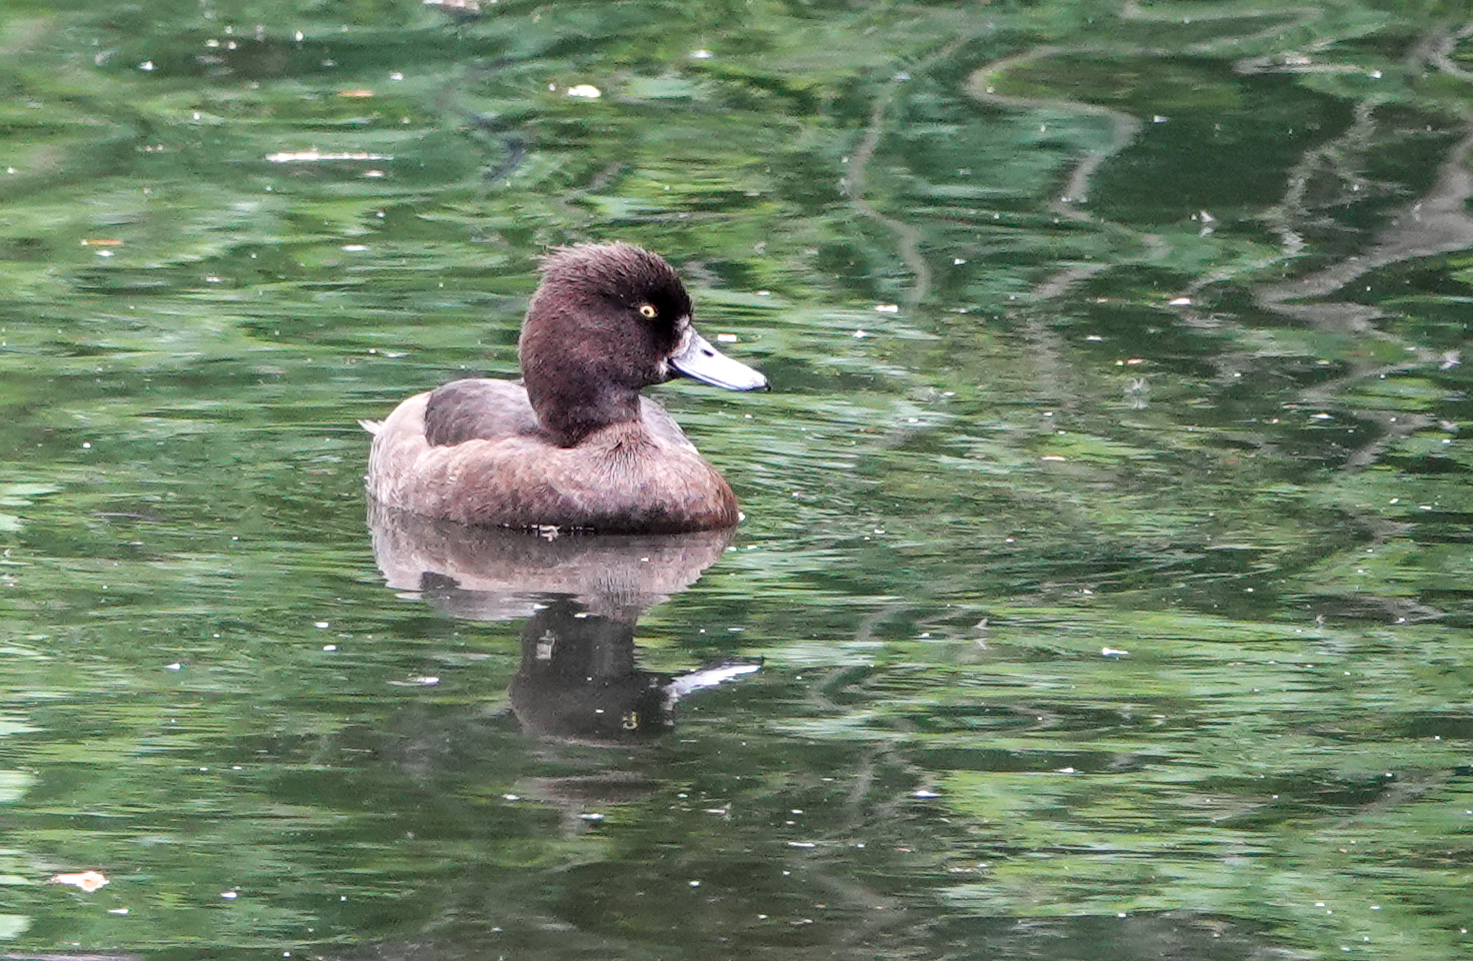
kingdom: Animalia
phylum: Chordata
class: Aves
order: Anseriformes
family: Anatidae
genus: Aythya
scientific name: Aythya fuligula
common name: Tufted duck
